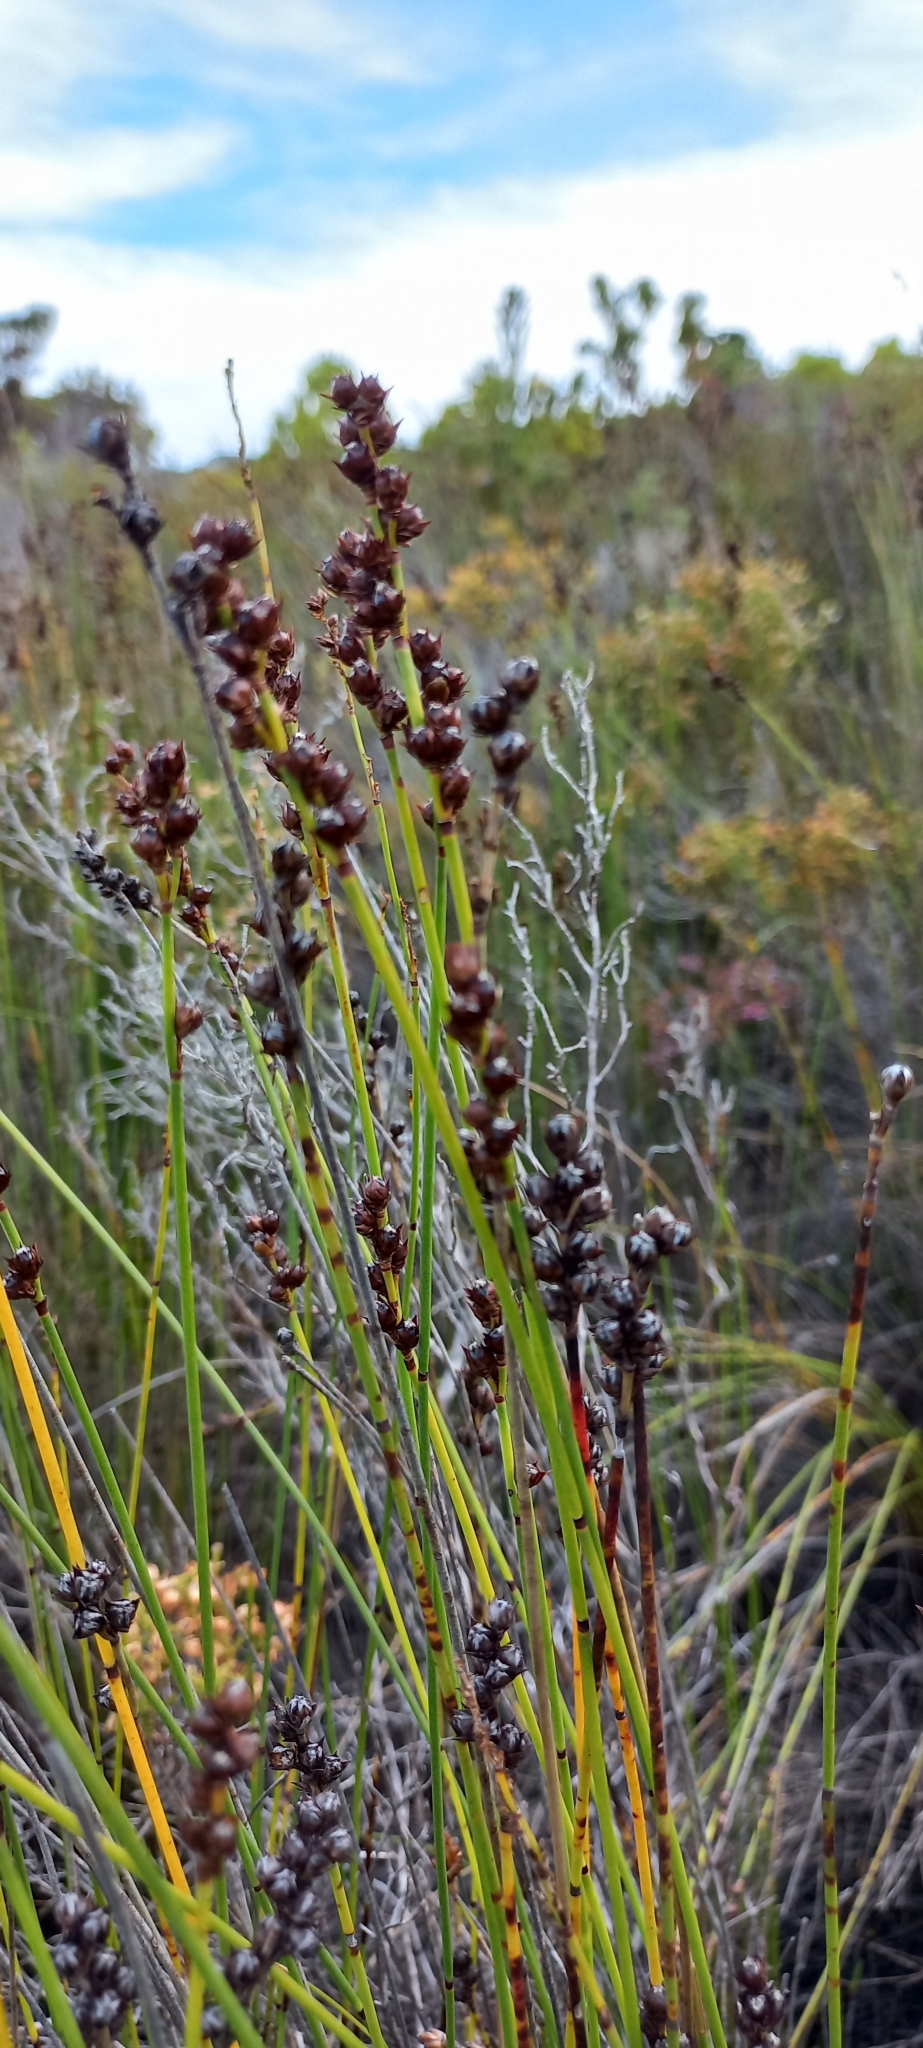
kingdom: Plantae
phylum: Tracheophyta
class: Liliopsida
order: Poales
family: Restionaceae
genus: Elegia
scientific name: Elegia macrocarpa
